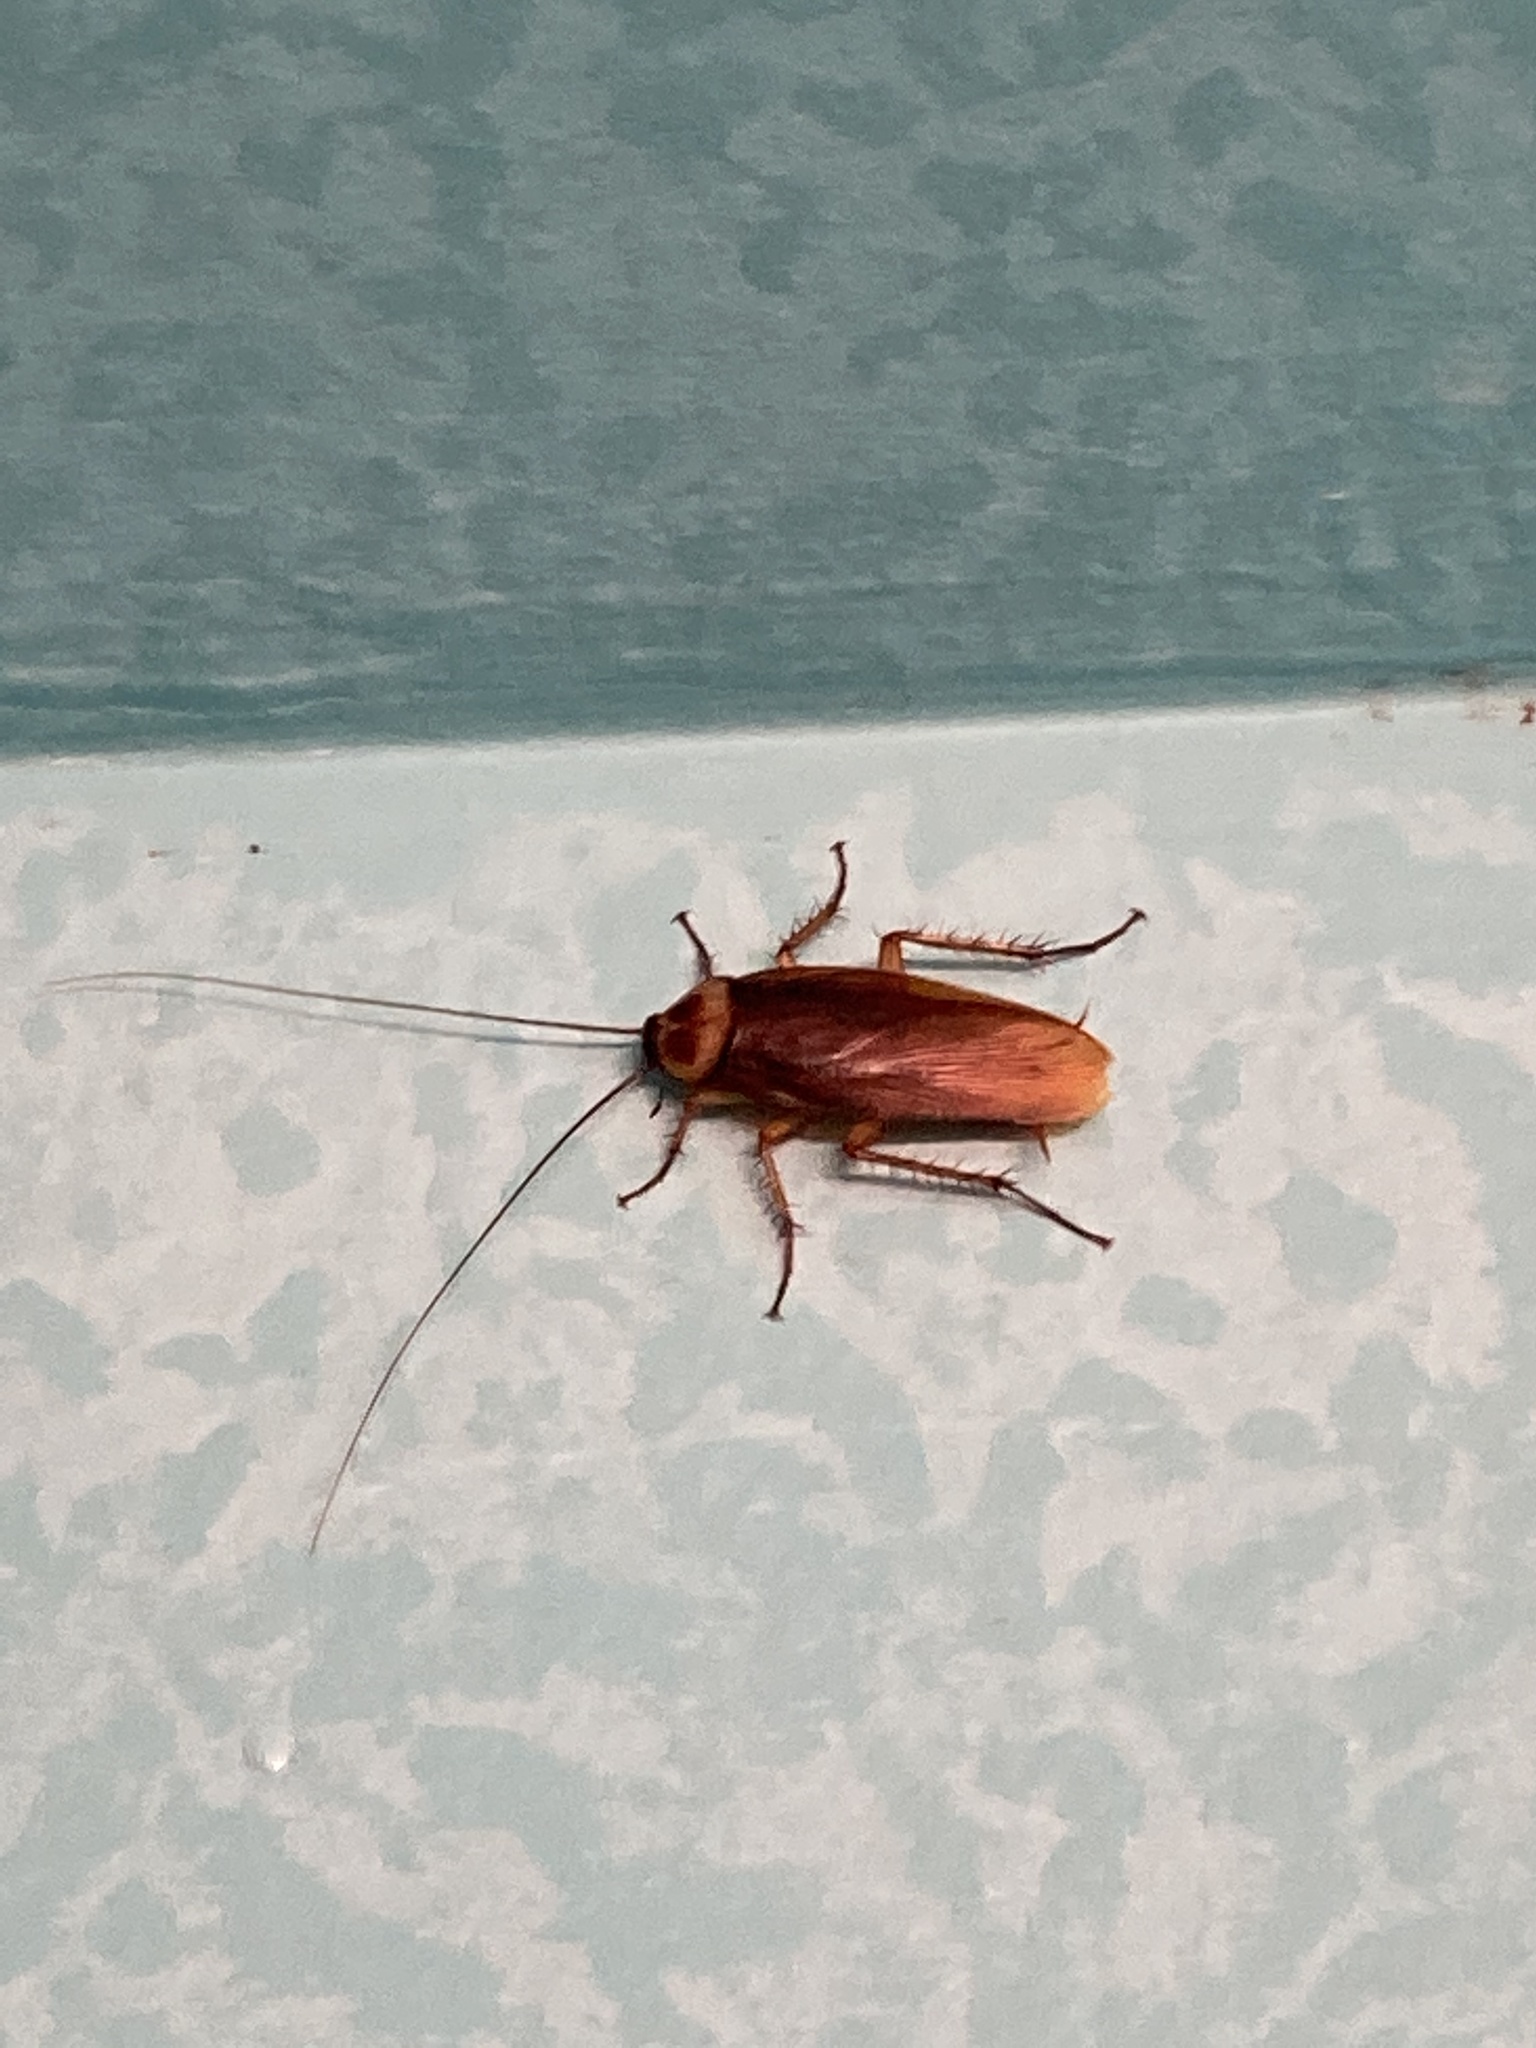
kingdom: Animalia
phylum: Arthropoda
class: Insecta
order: Blattodea
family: Blattidae
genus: Periplaneta
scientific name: Periplaneta americana
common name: American cockroach
